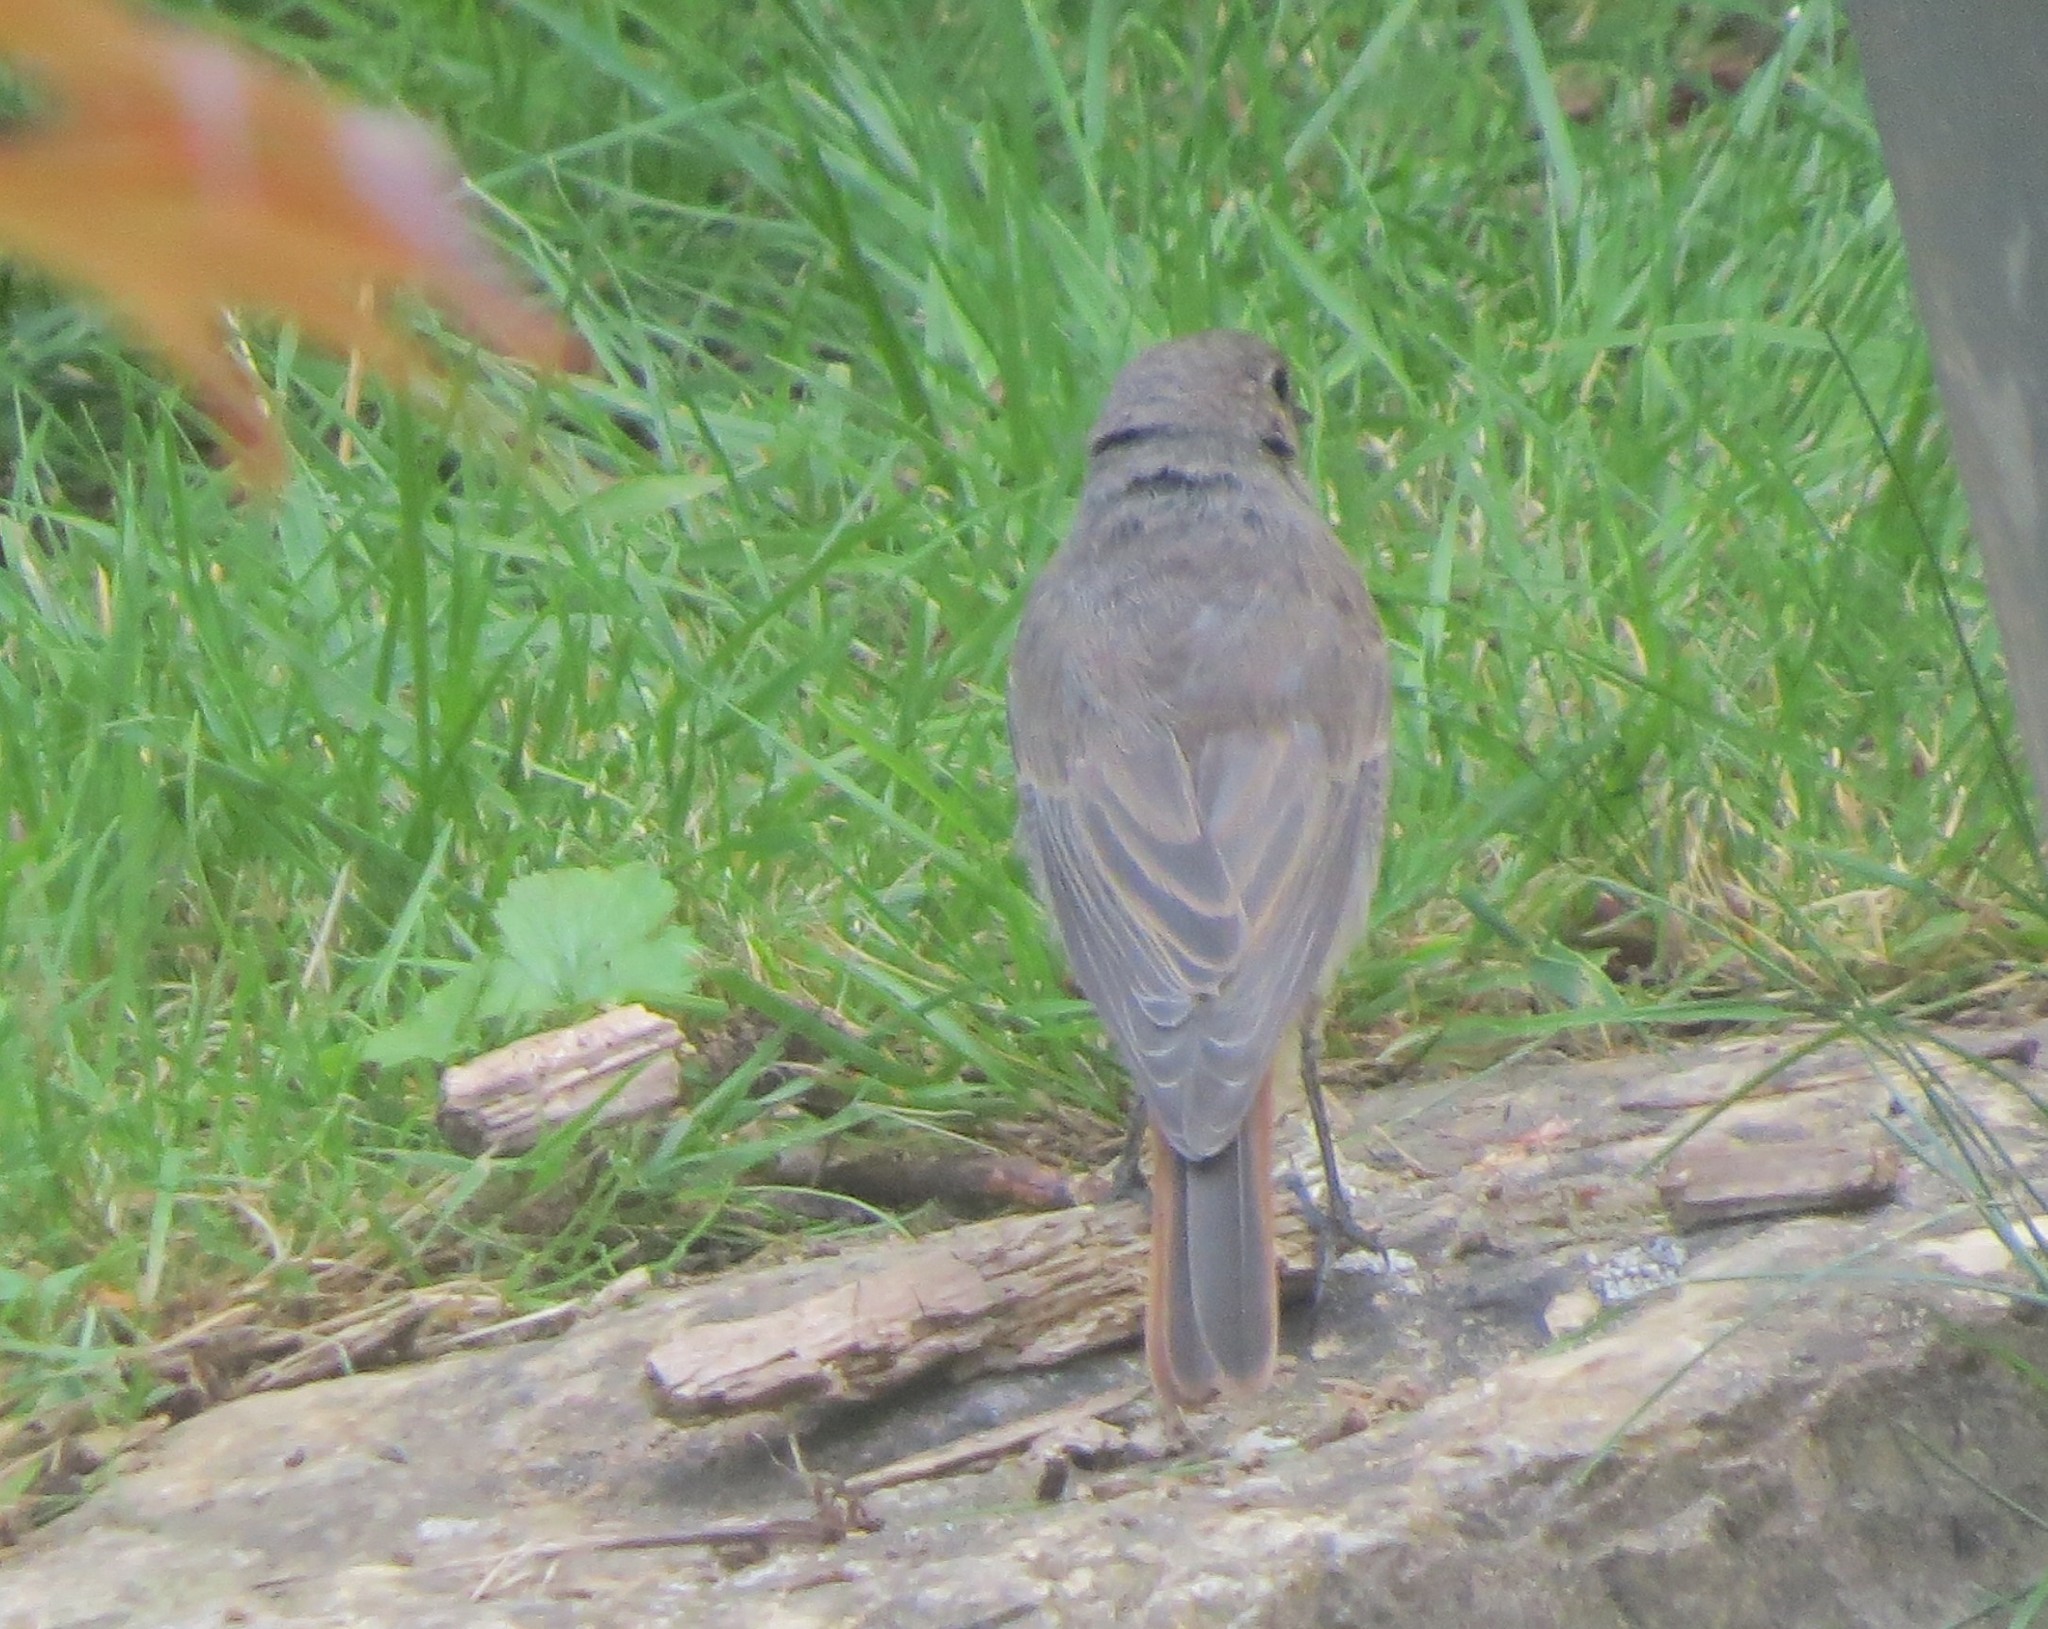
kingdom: Animalia
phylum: Chordata
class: Aves
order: Passeriformes
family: Muscicapidae
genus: Phoenicurus
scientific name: Phoenicurus ochruros
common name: Black redstart
